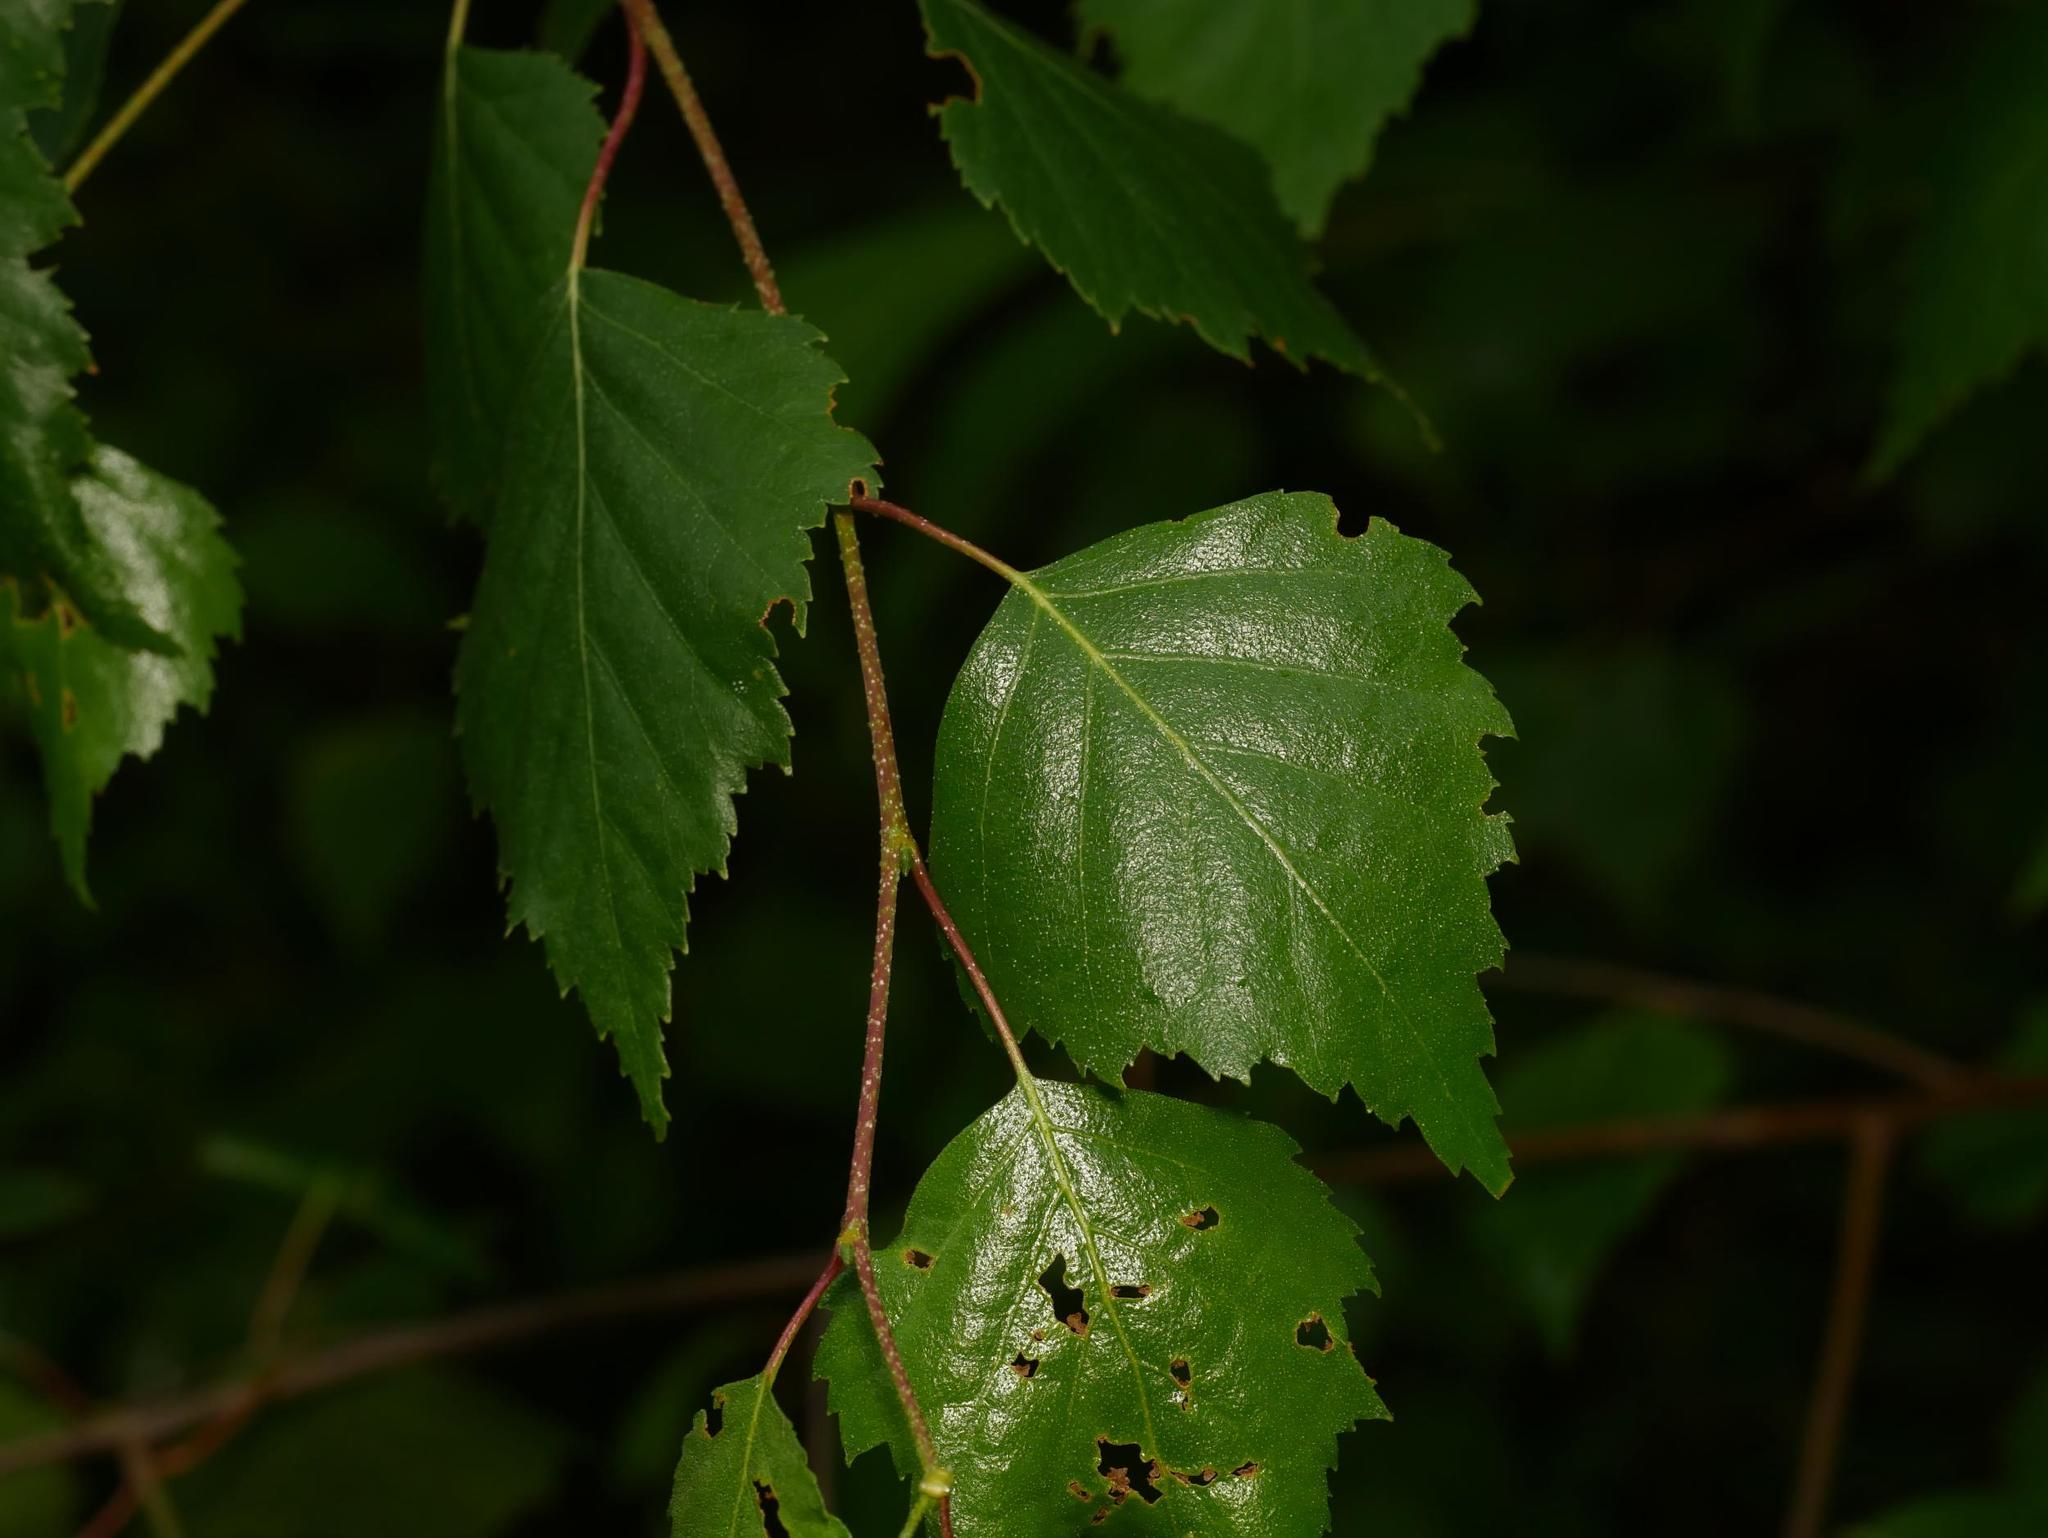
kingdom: Plantae
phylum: Tracheophyta
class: Magnoliopsida
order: Fagales
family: Betulaceae
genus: Betula
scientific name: Betula pendula
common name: Silver birch
